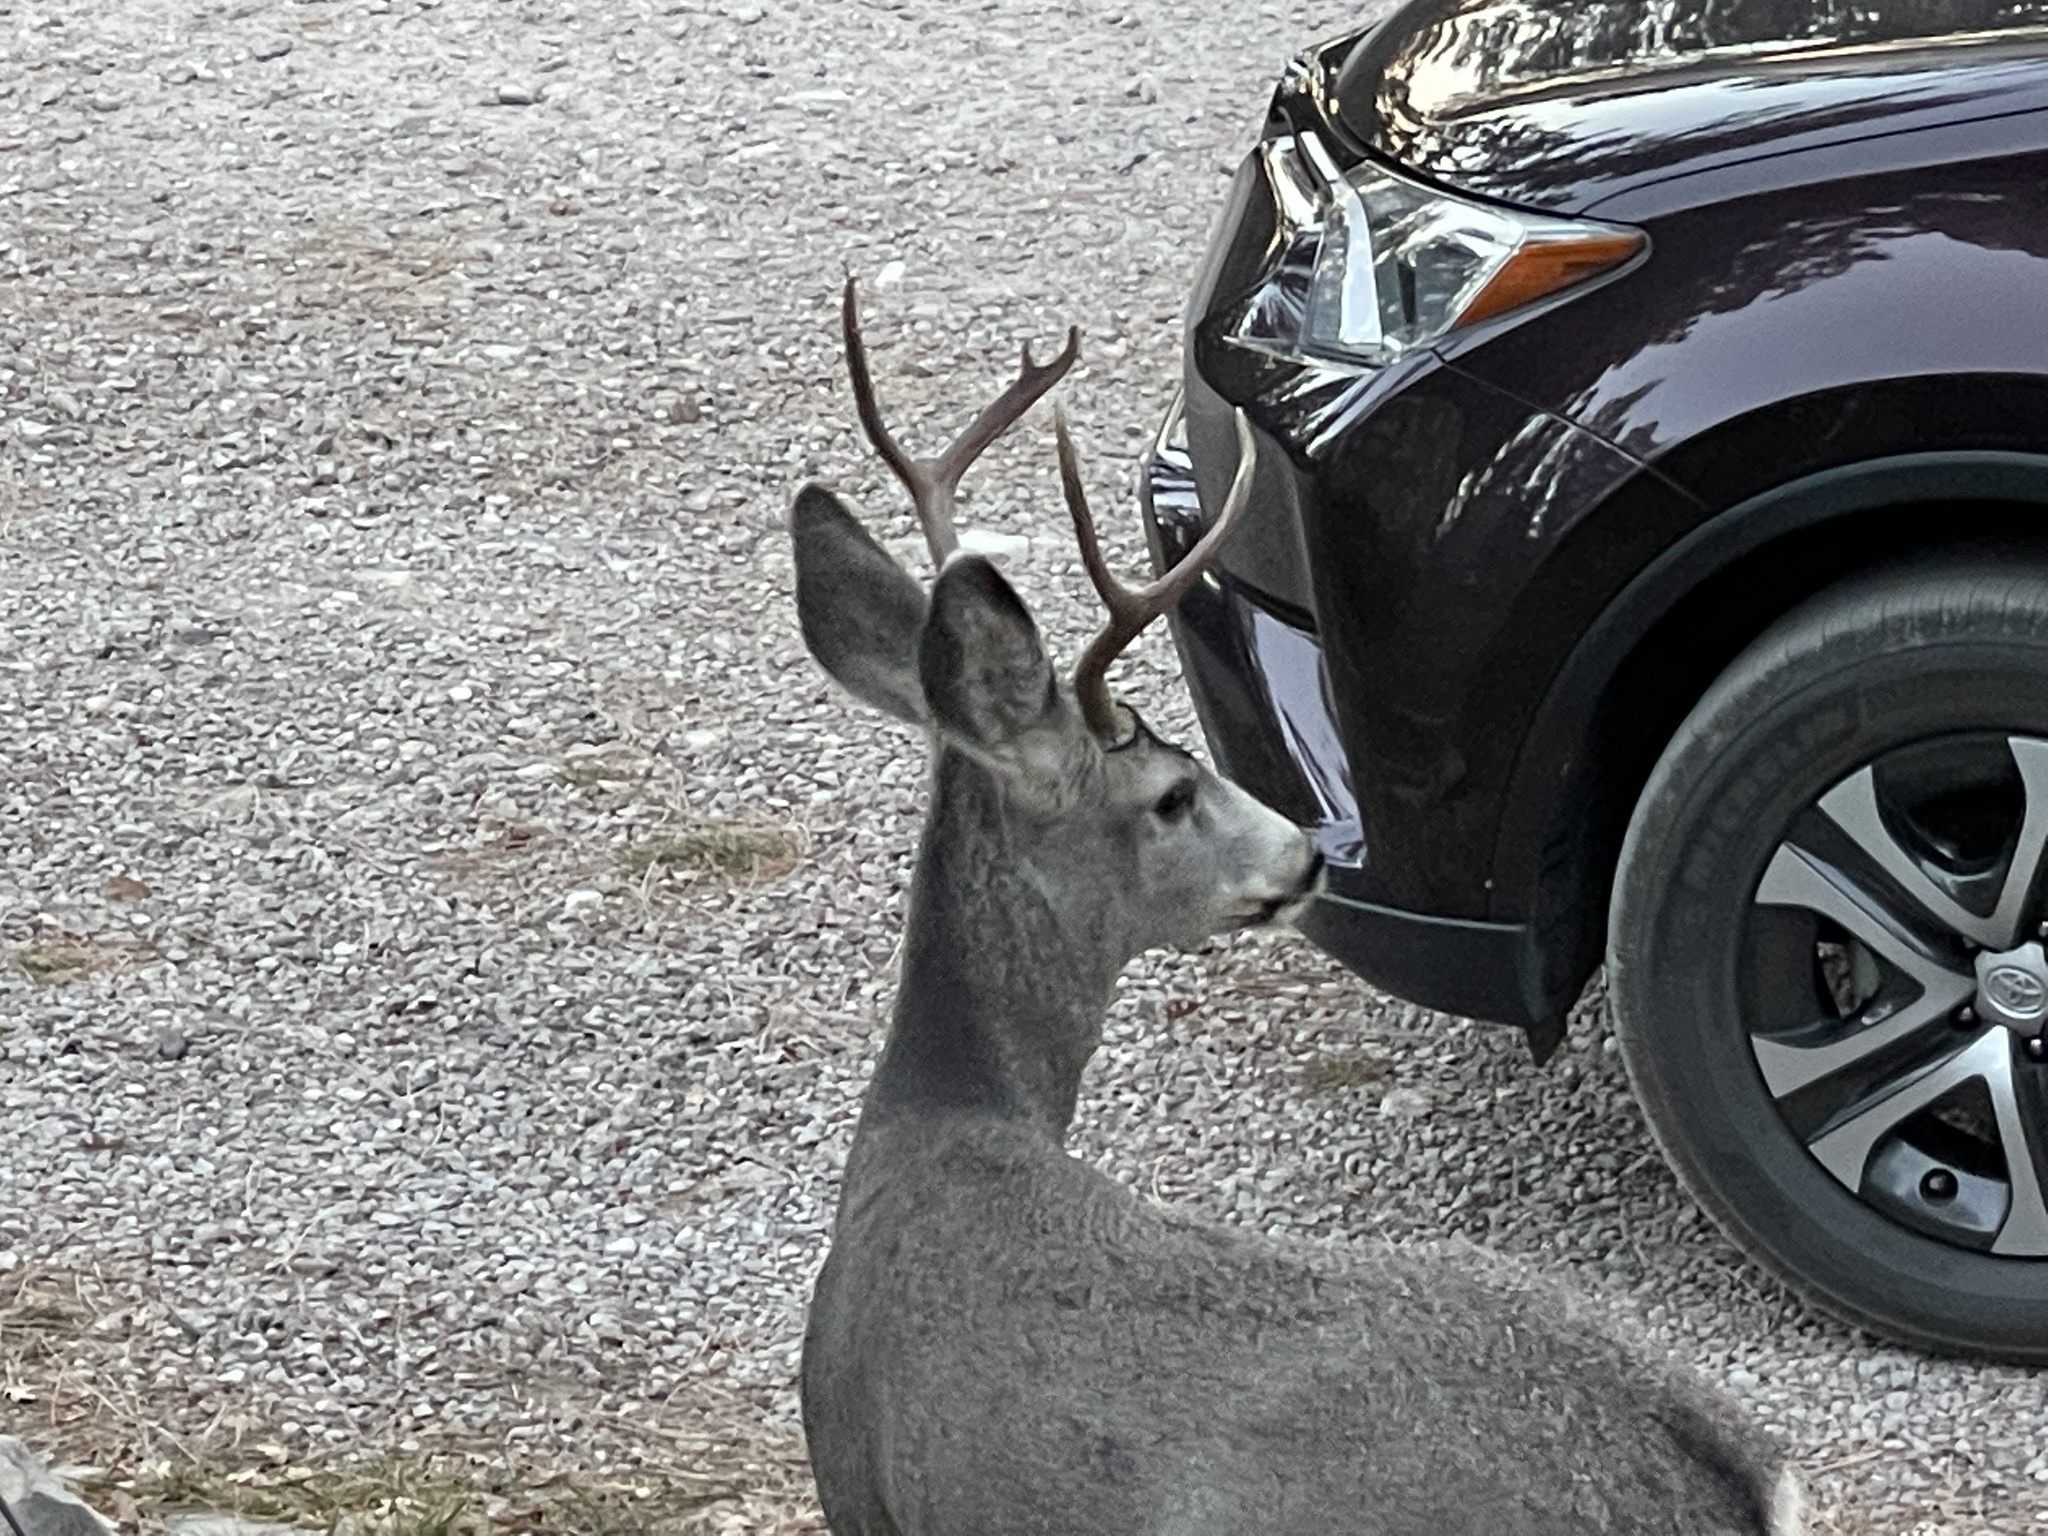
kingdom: Animalia
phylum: Chordata
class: Mammalia
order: Artiodactyla
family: Cervidae
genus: Odocoileus
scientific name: Odocoileus hemionus
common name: Mule deer
